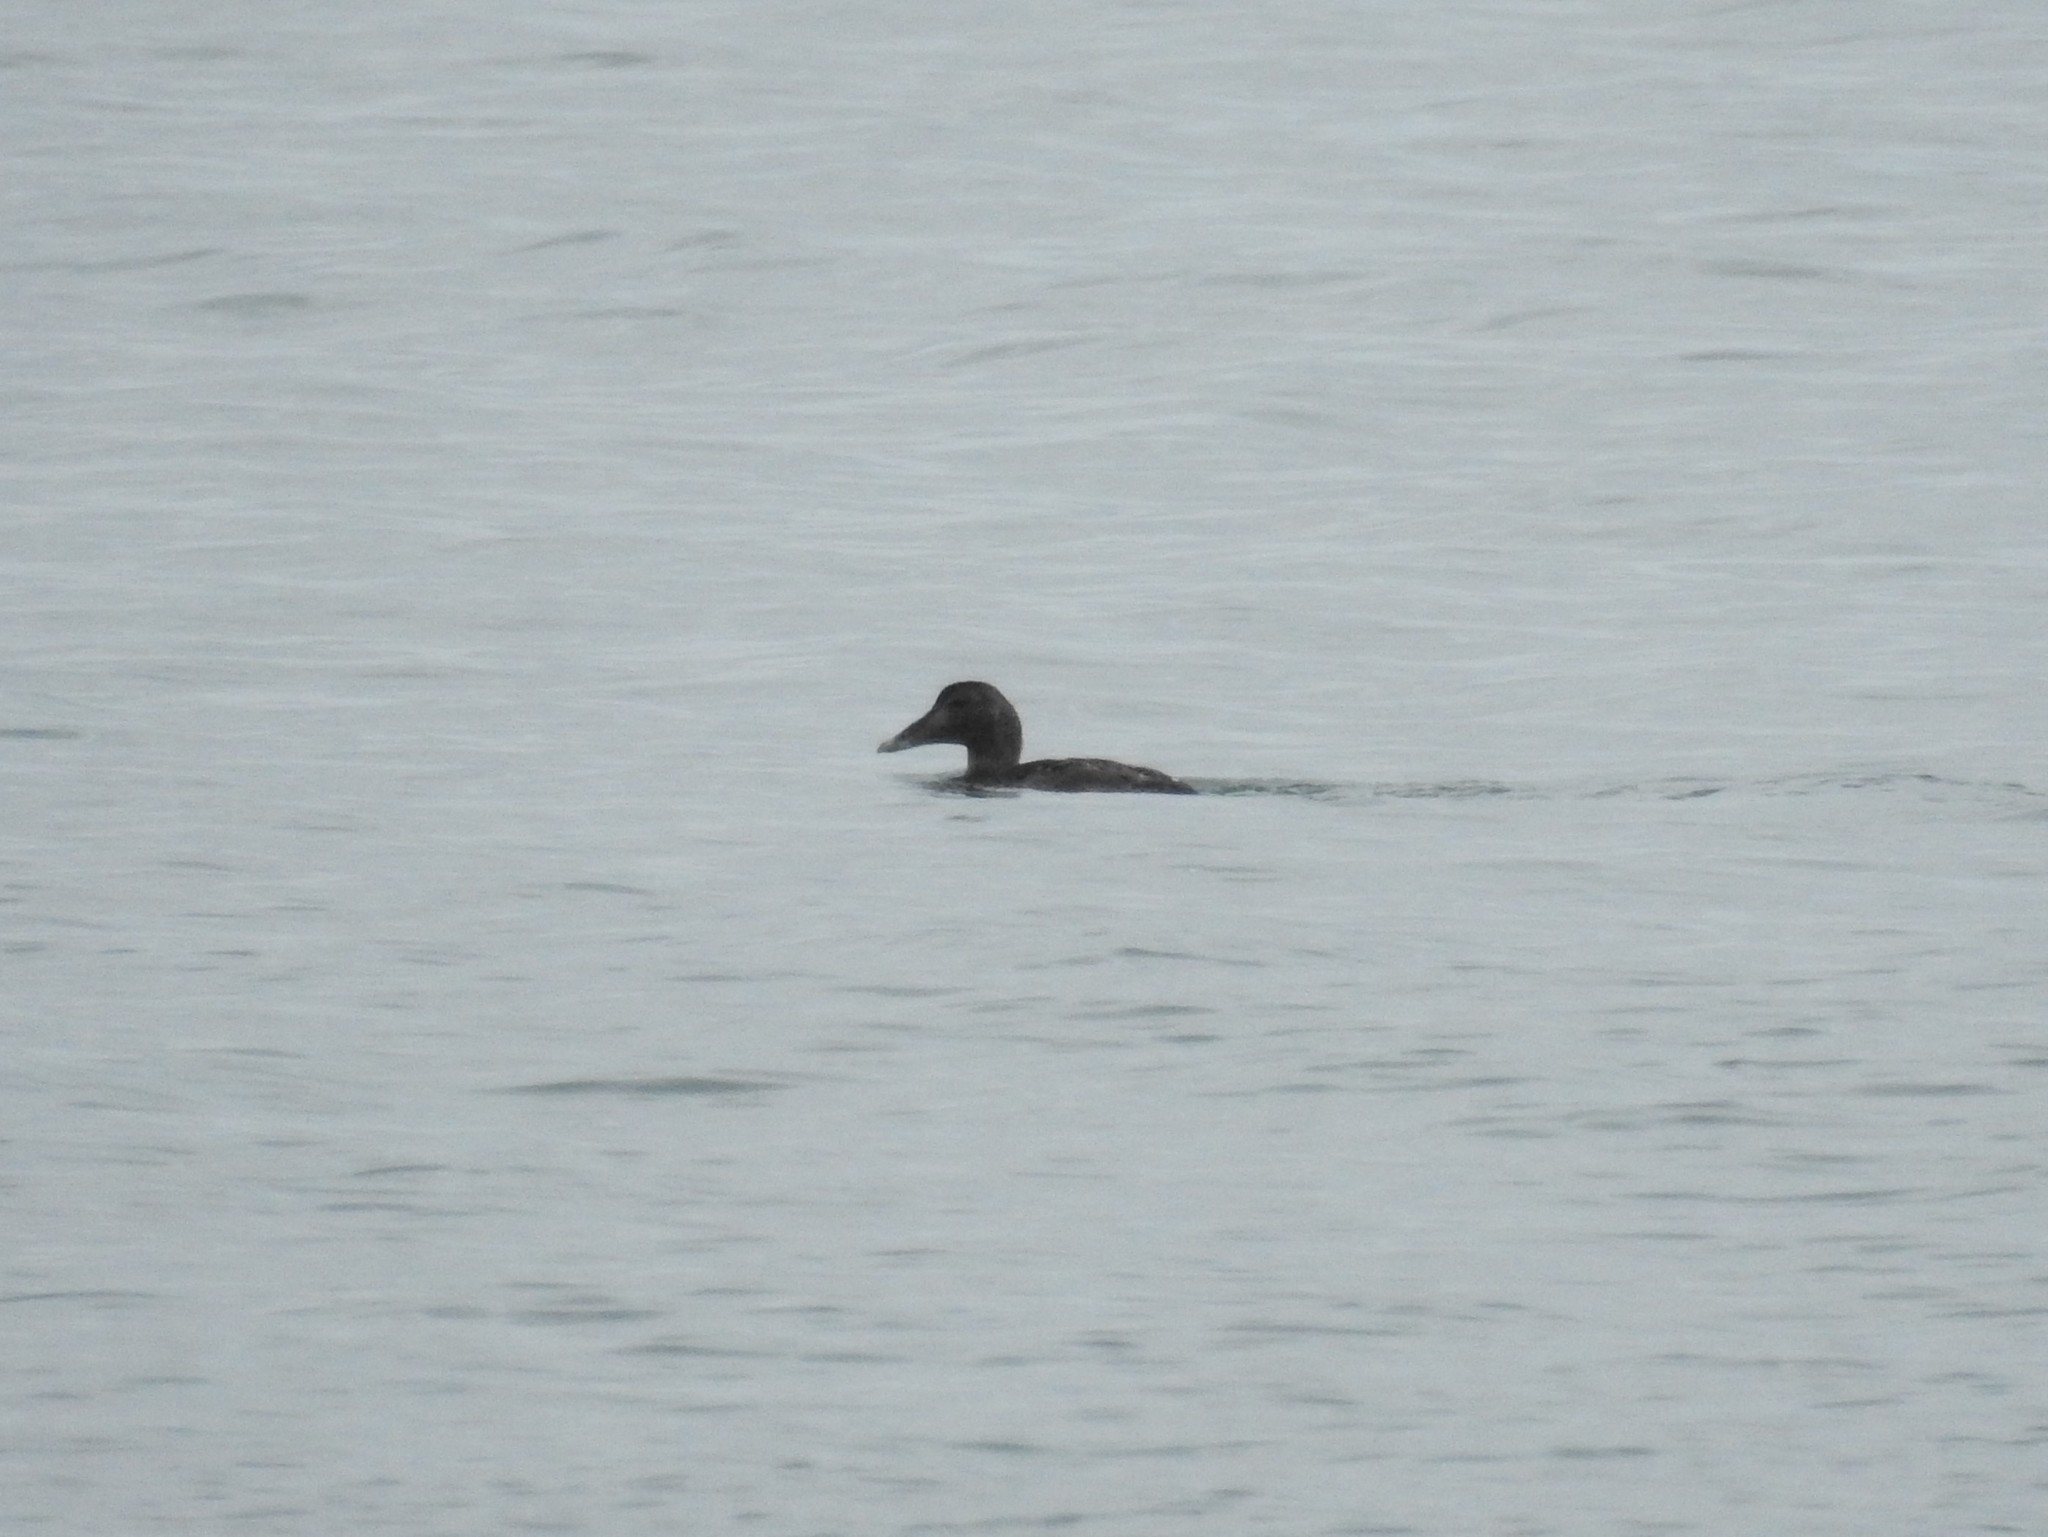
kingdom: Animalia
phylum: Chordata
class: Aves
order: Anseriformes
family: Anatidae
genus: Somateria
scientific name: Somateria mollissima
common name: Common eider
